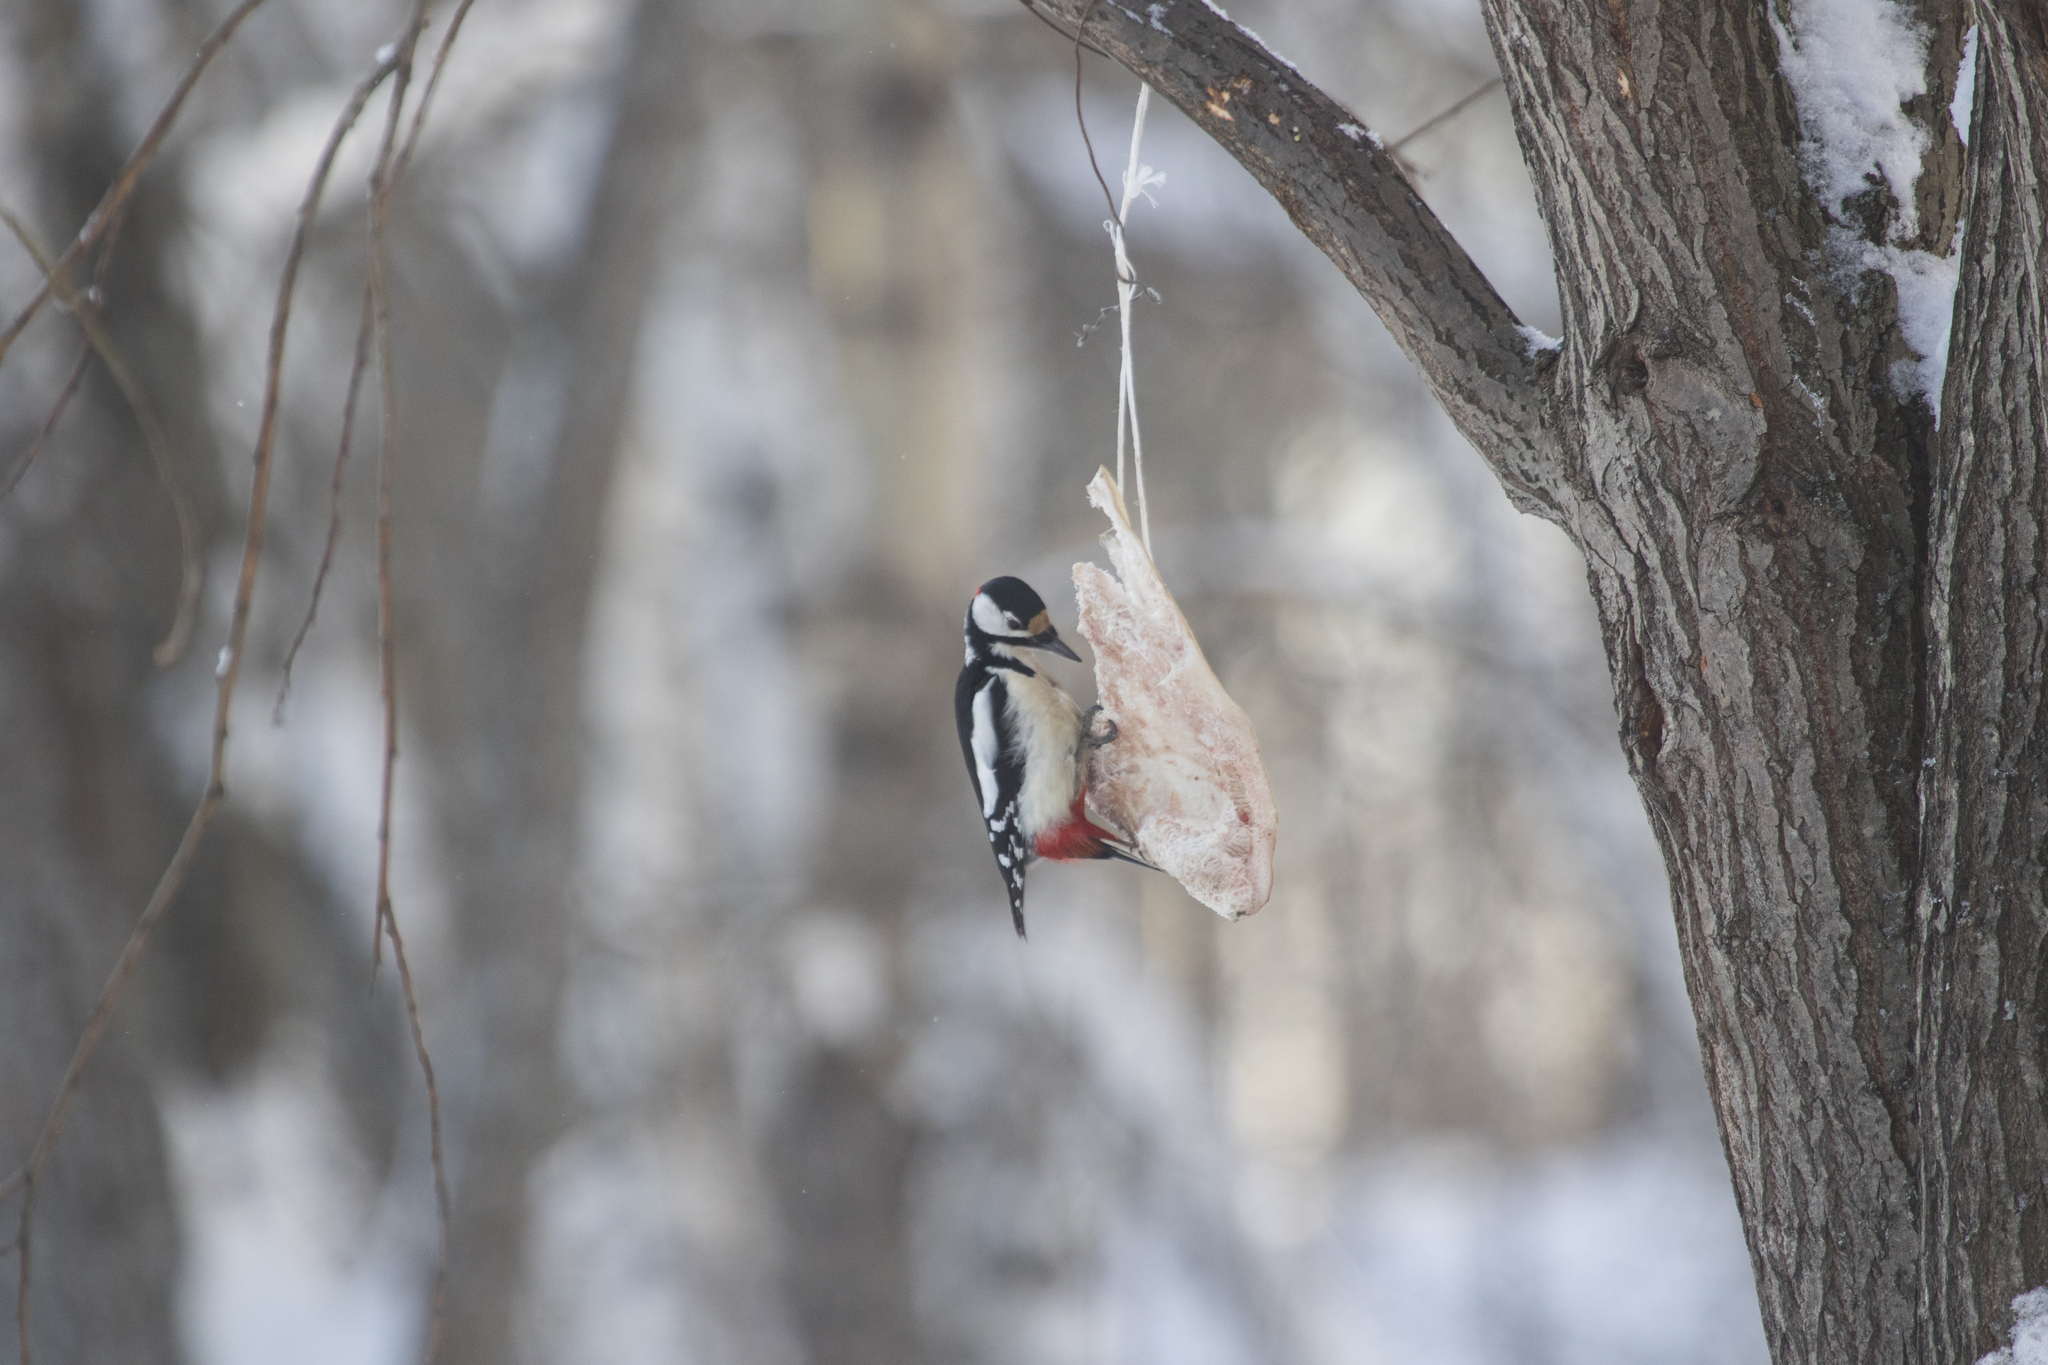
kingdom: Animalia
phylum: Chordata
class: Aves
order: Piciformes
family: Picidae
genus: Dendrocopos
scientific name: Dendrocopos major
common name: Great spotted woodpecker
